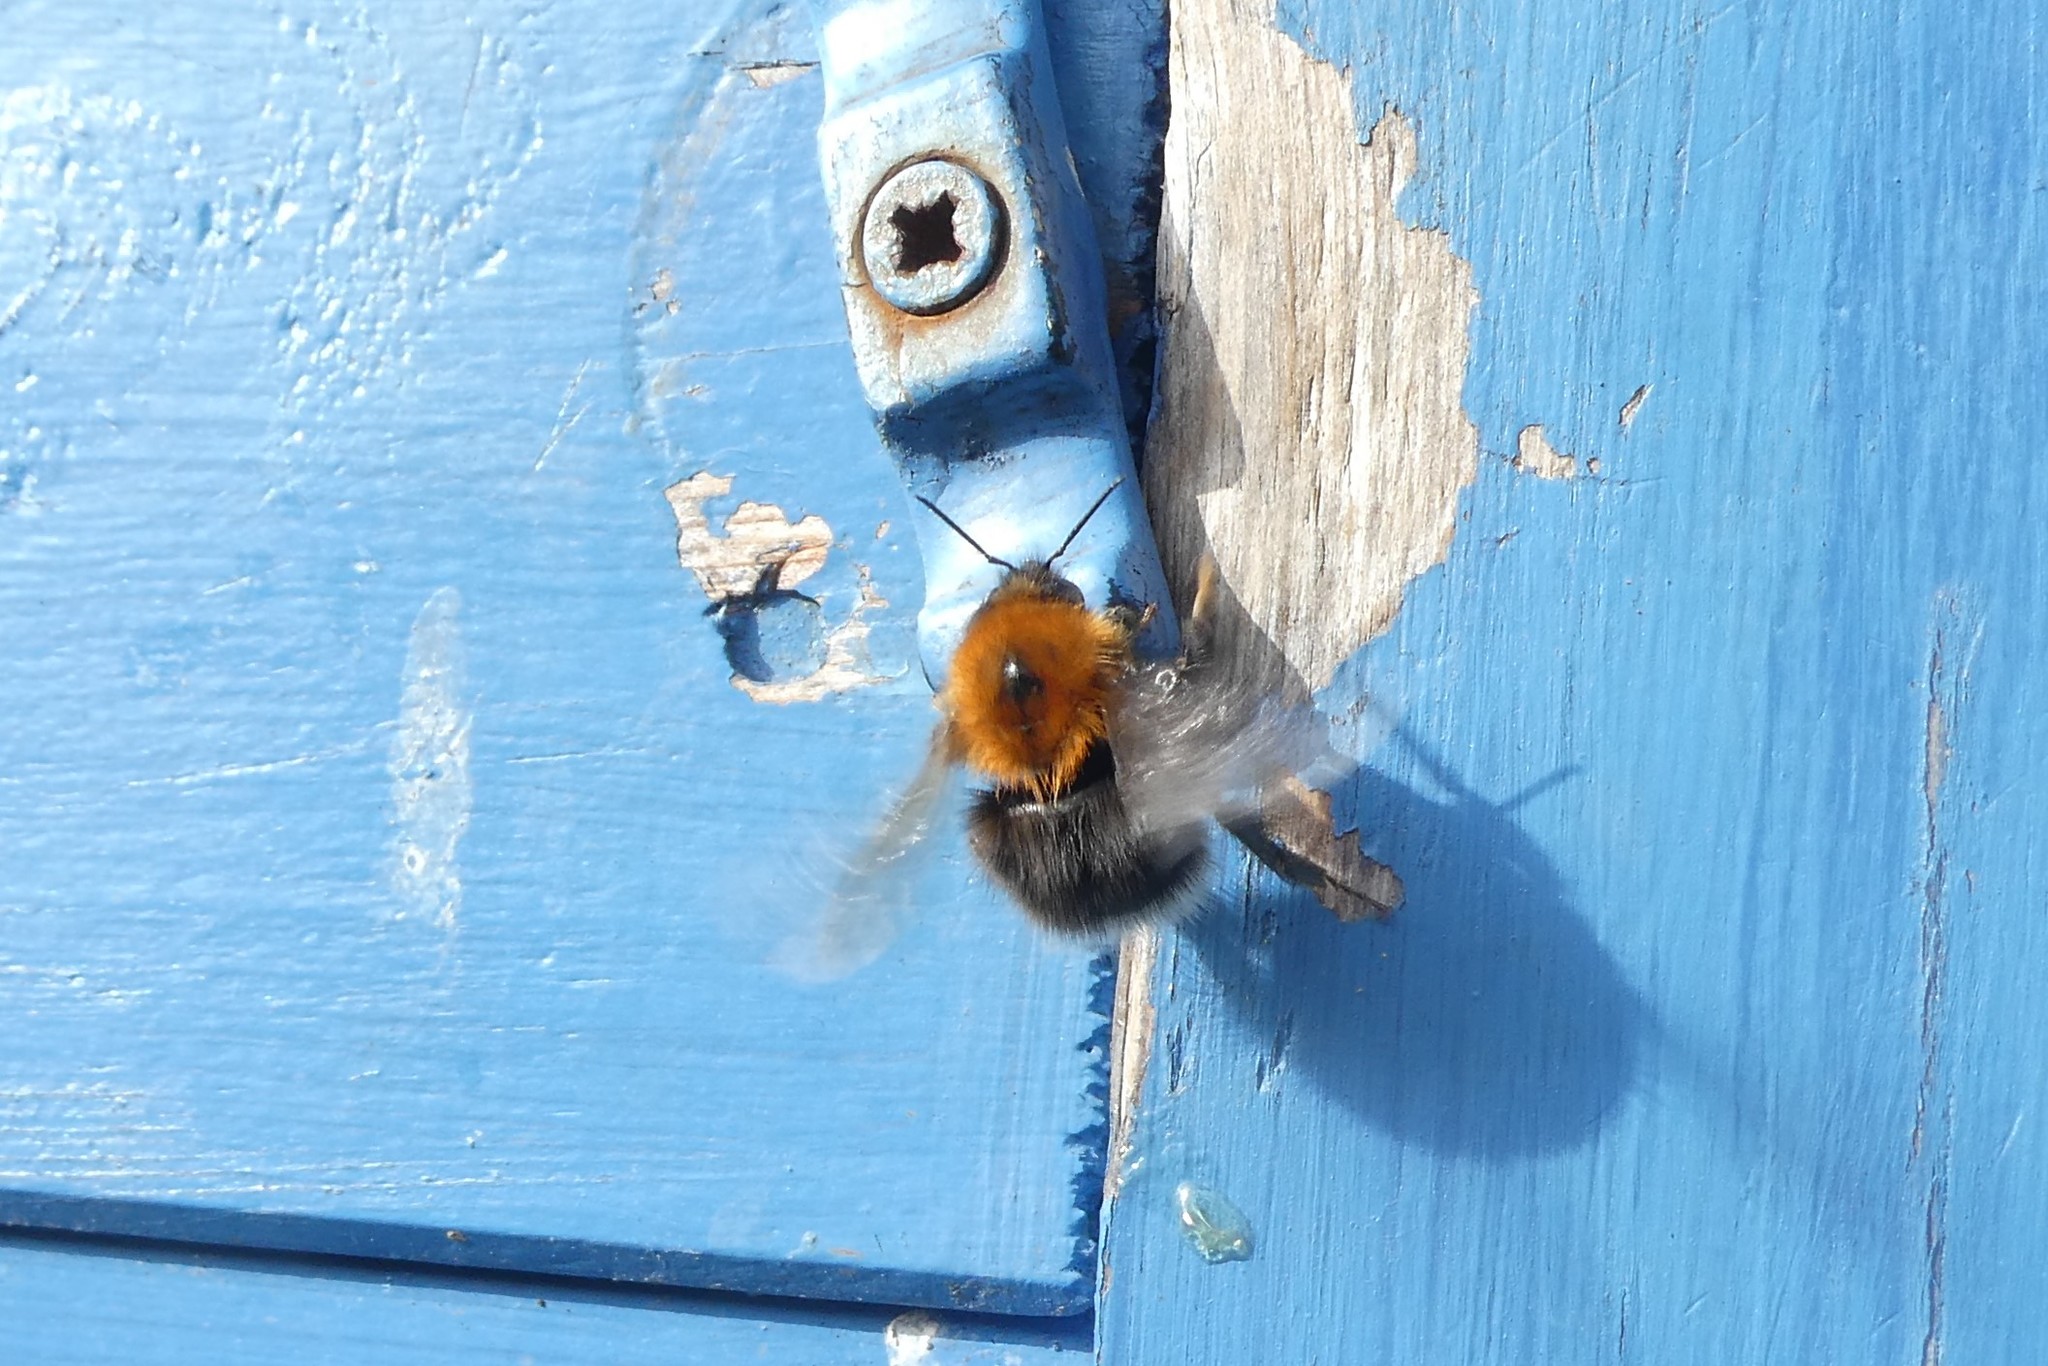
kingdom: Animalia
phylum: Arthropoda
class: Insecta
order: Hymenoptera
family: Apidae
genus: Bombus
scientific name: Bombus hypnorum
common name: New garden bumblebee
